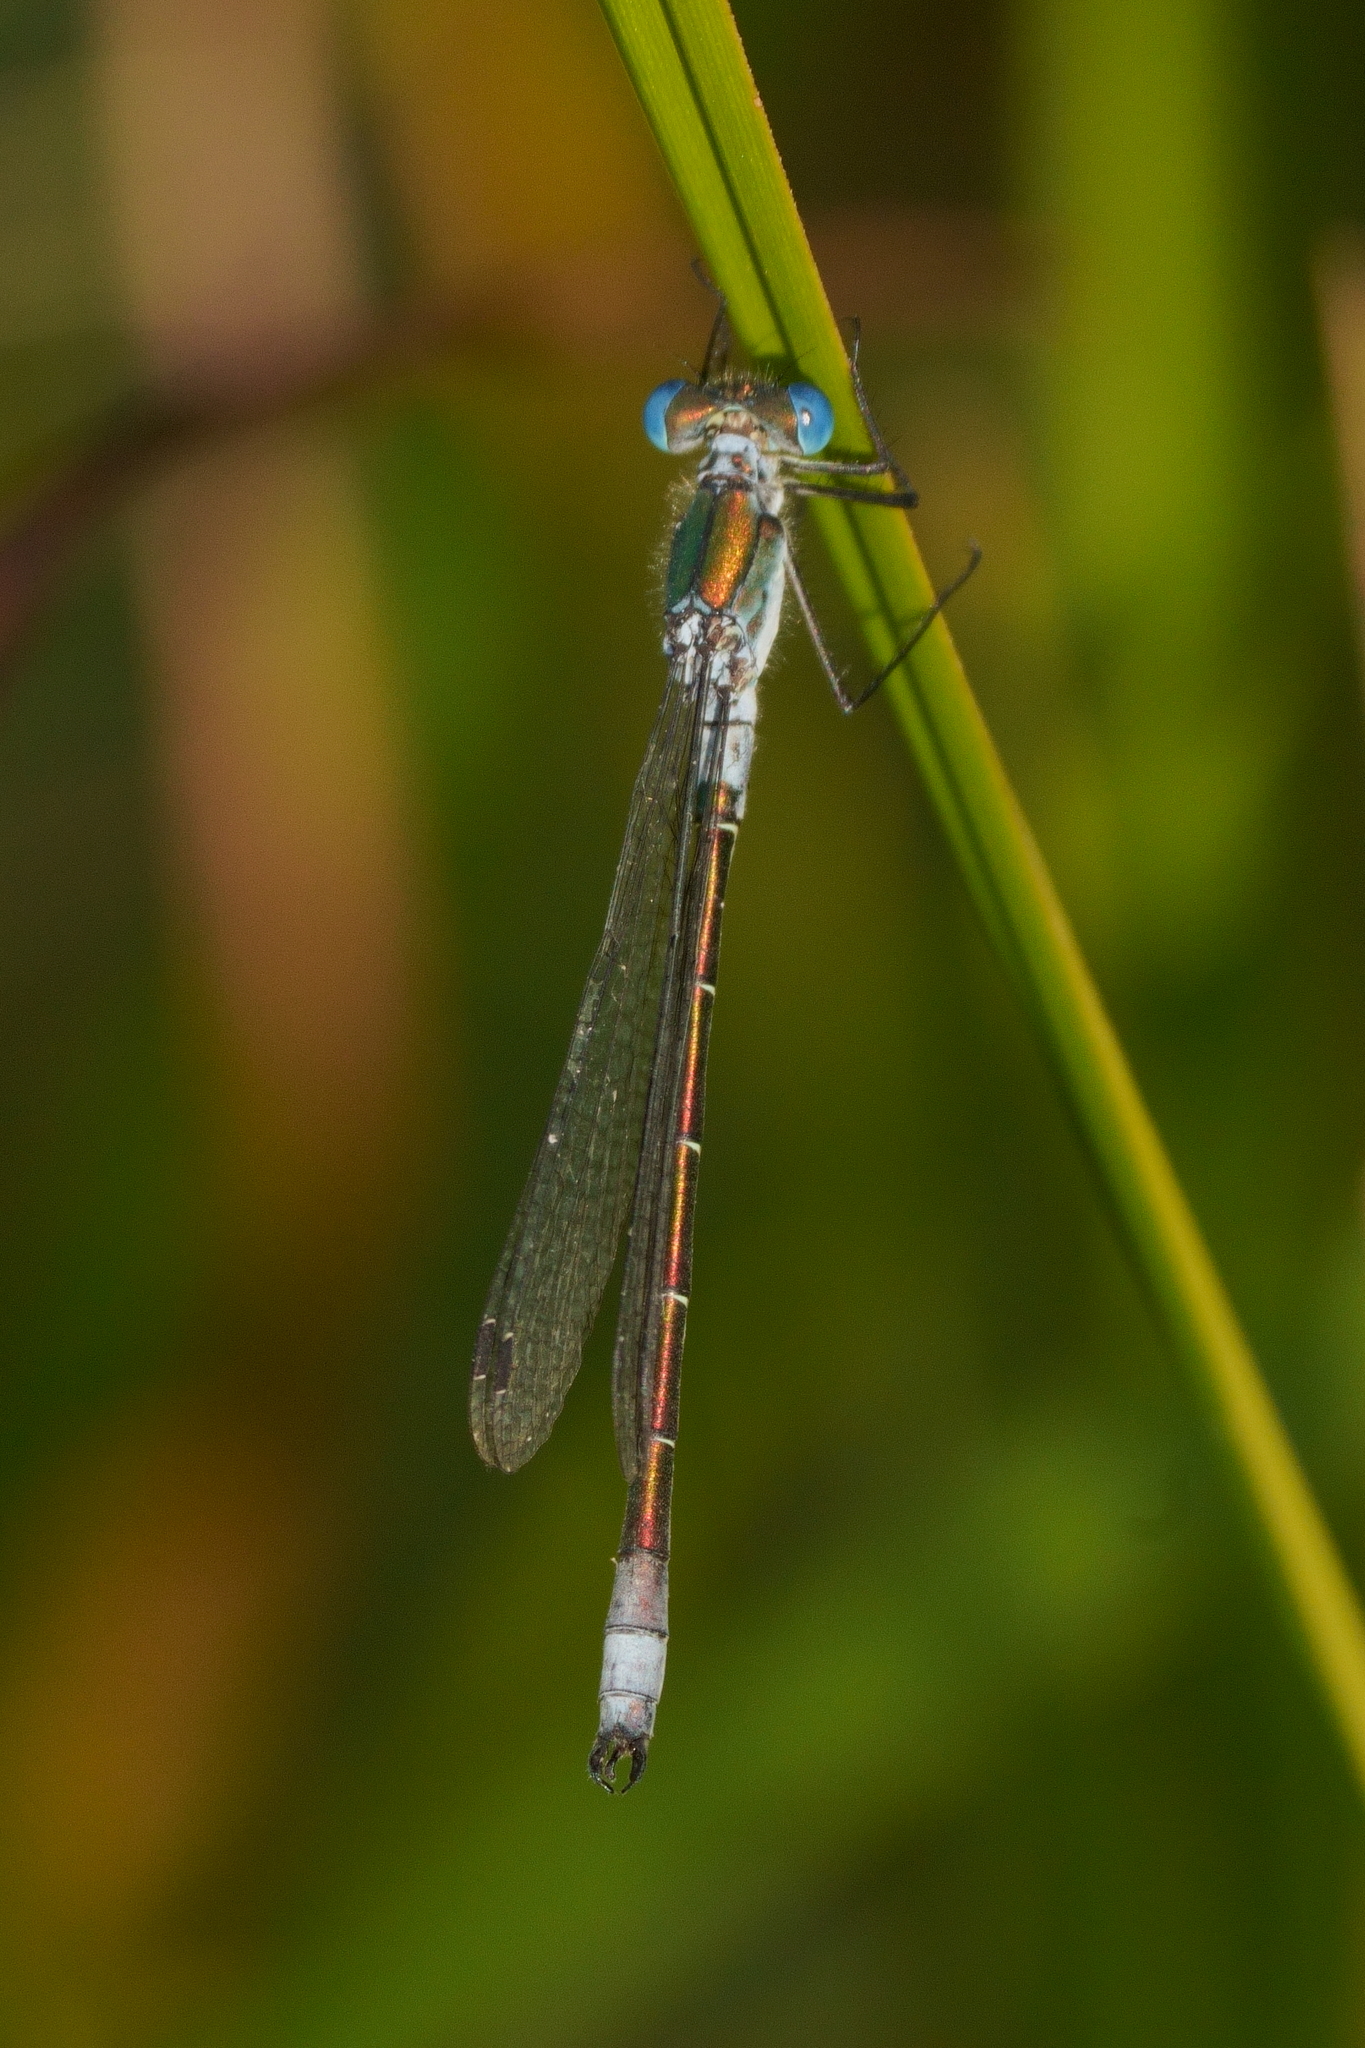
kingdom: Animalia
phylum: Arthropoda
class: Insecta
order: Odonata
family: Lestidae
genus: Lestes
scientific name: Lestes dryas
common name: Scarce emerald damselfly
